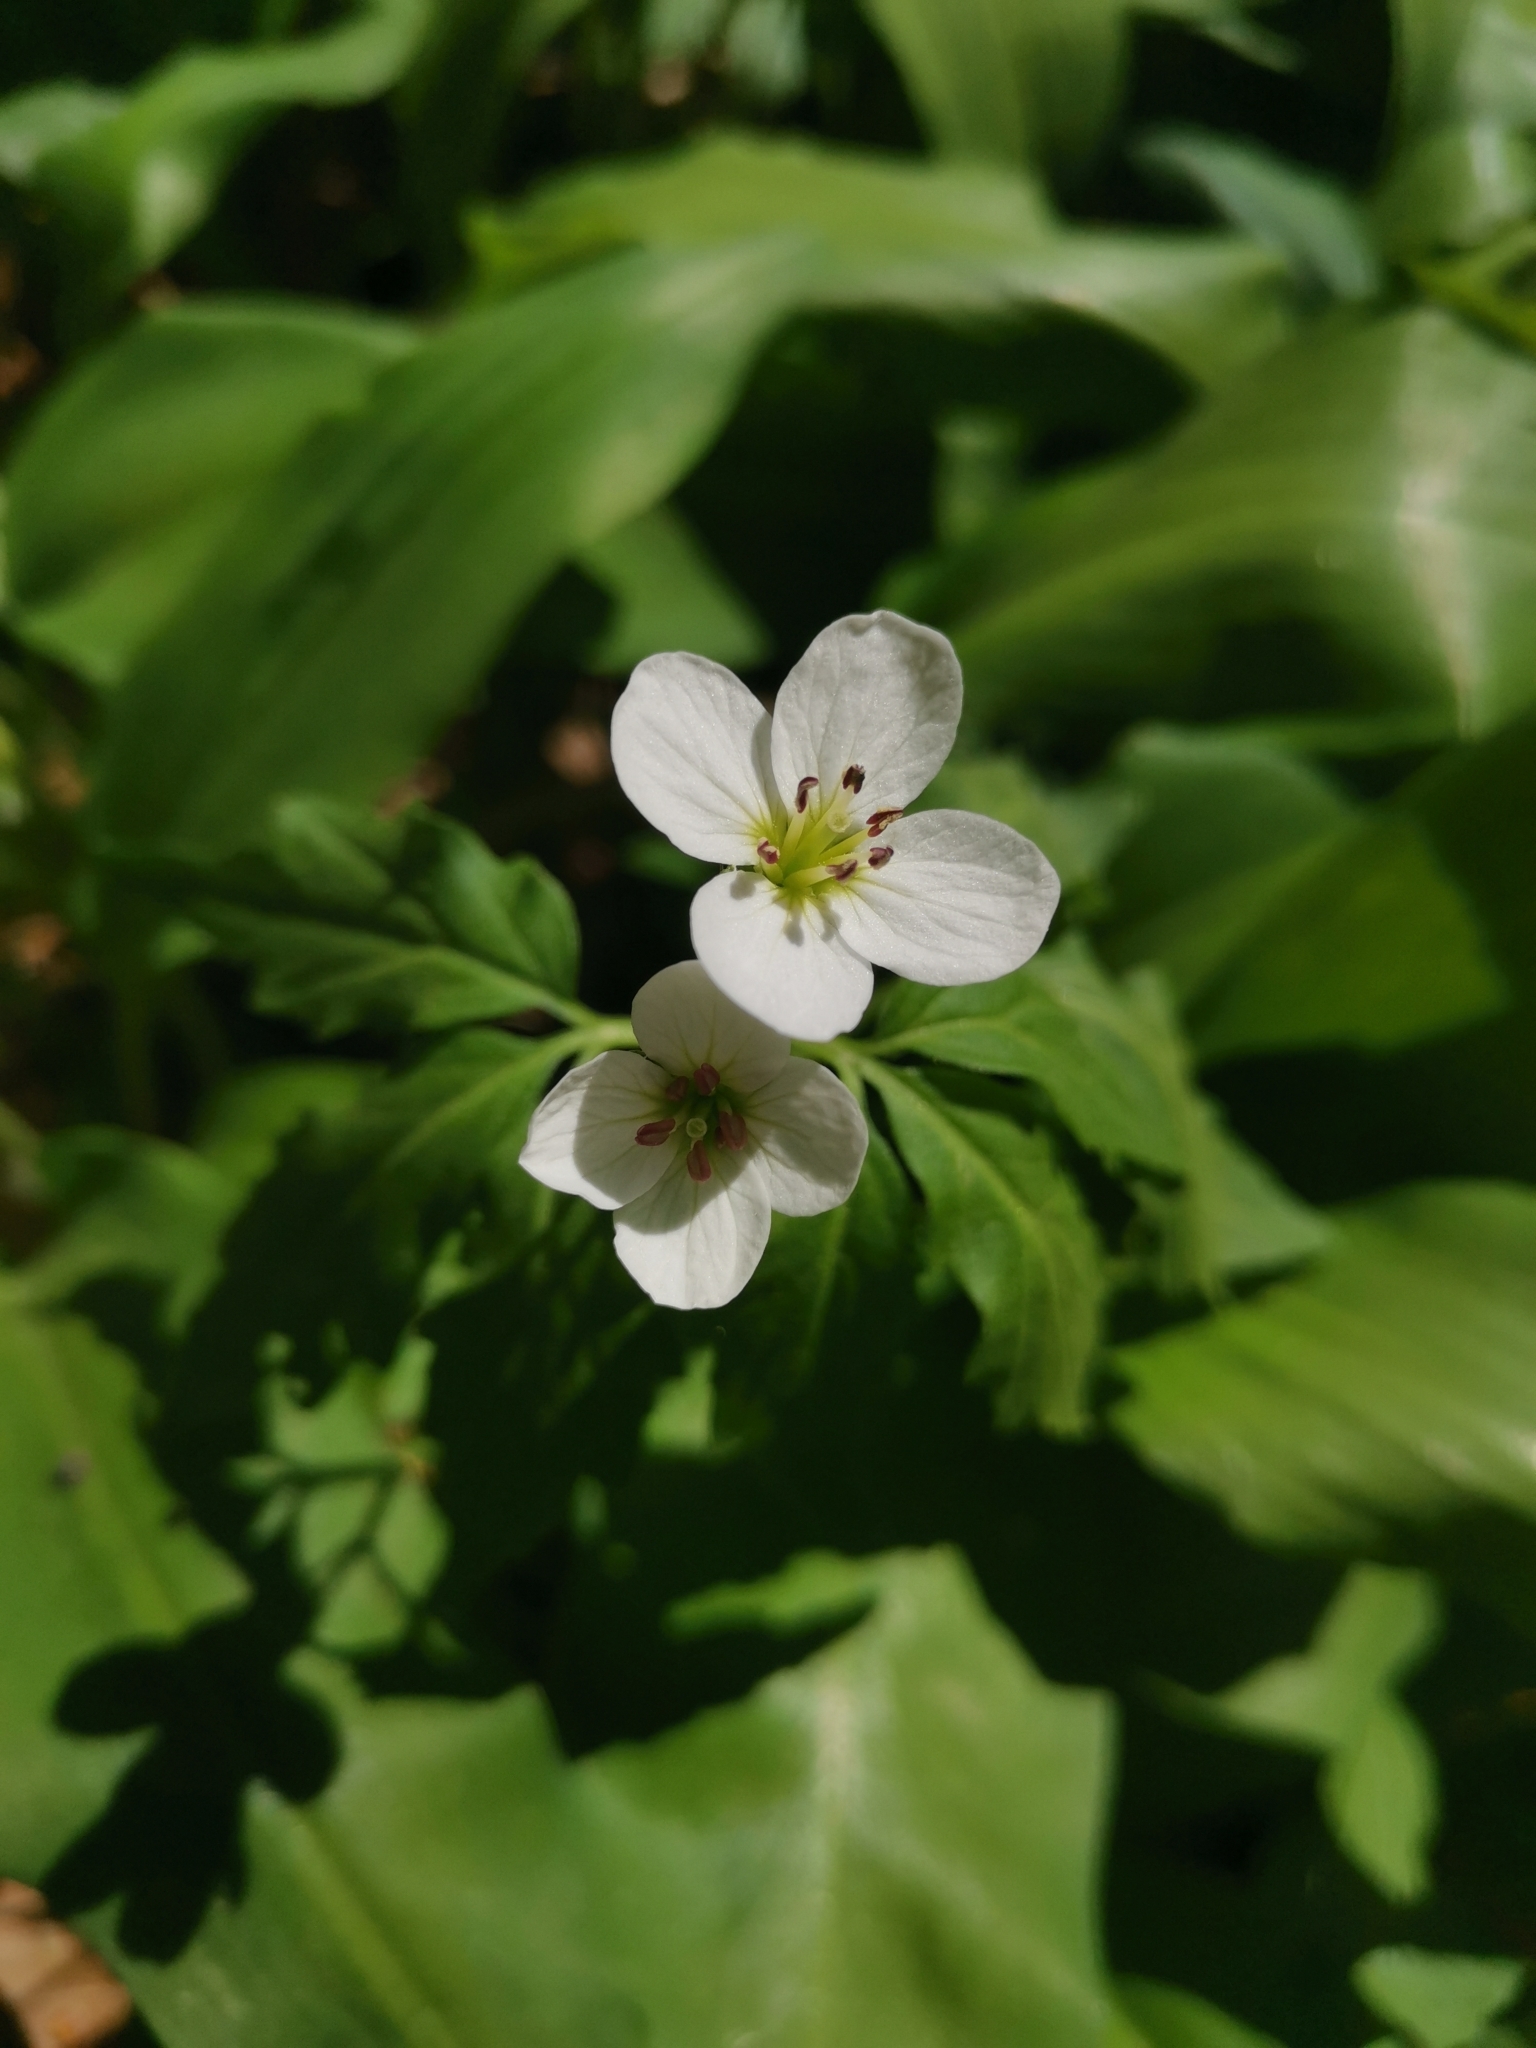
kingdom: Plantae
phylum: Tracheophyta
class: Magnoliopsida
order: Brassicales
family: Brassicaceae
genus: Cardamine
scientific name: Cardamine waldsteinii
